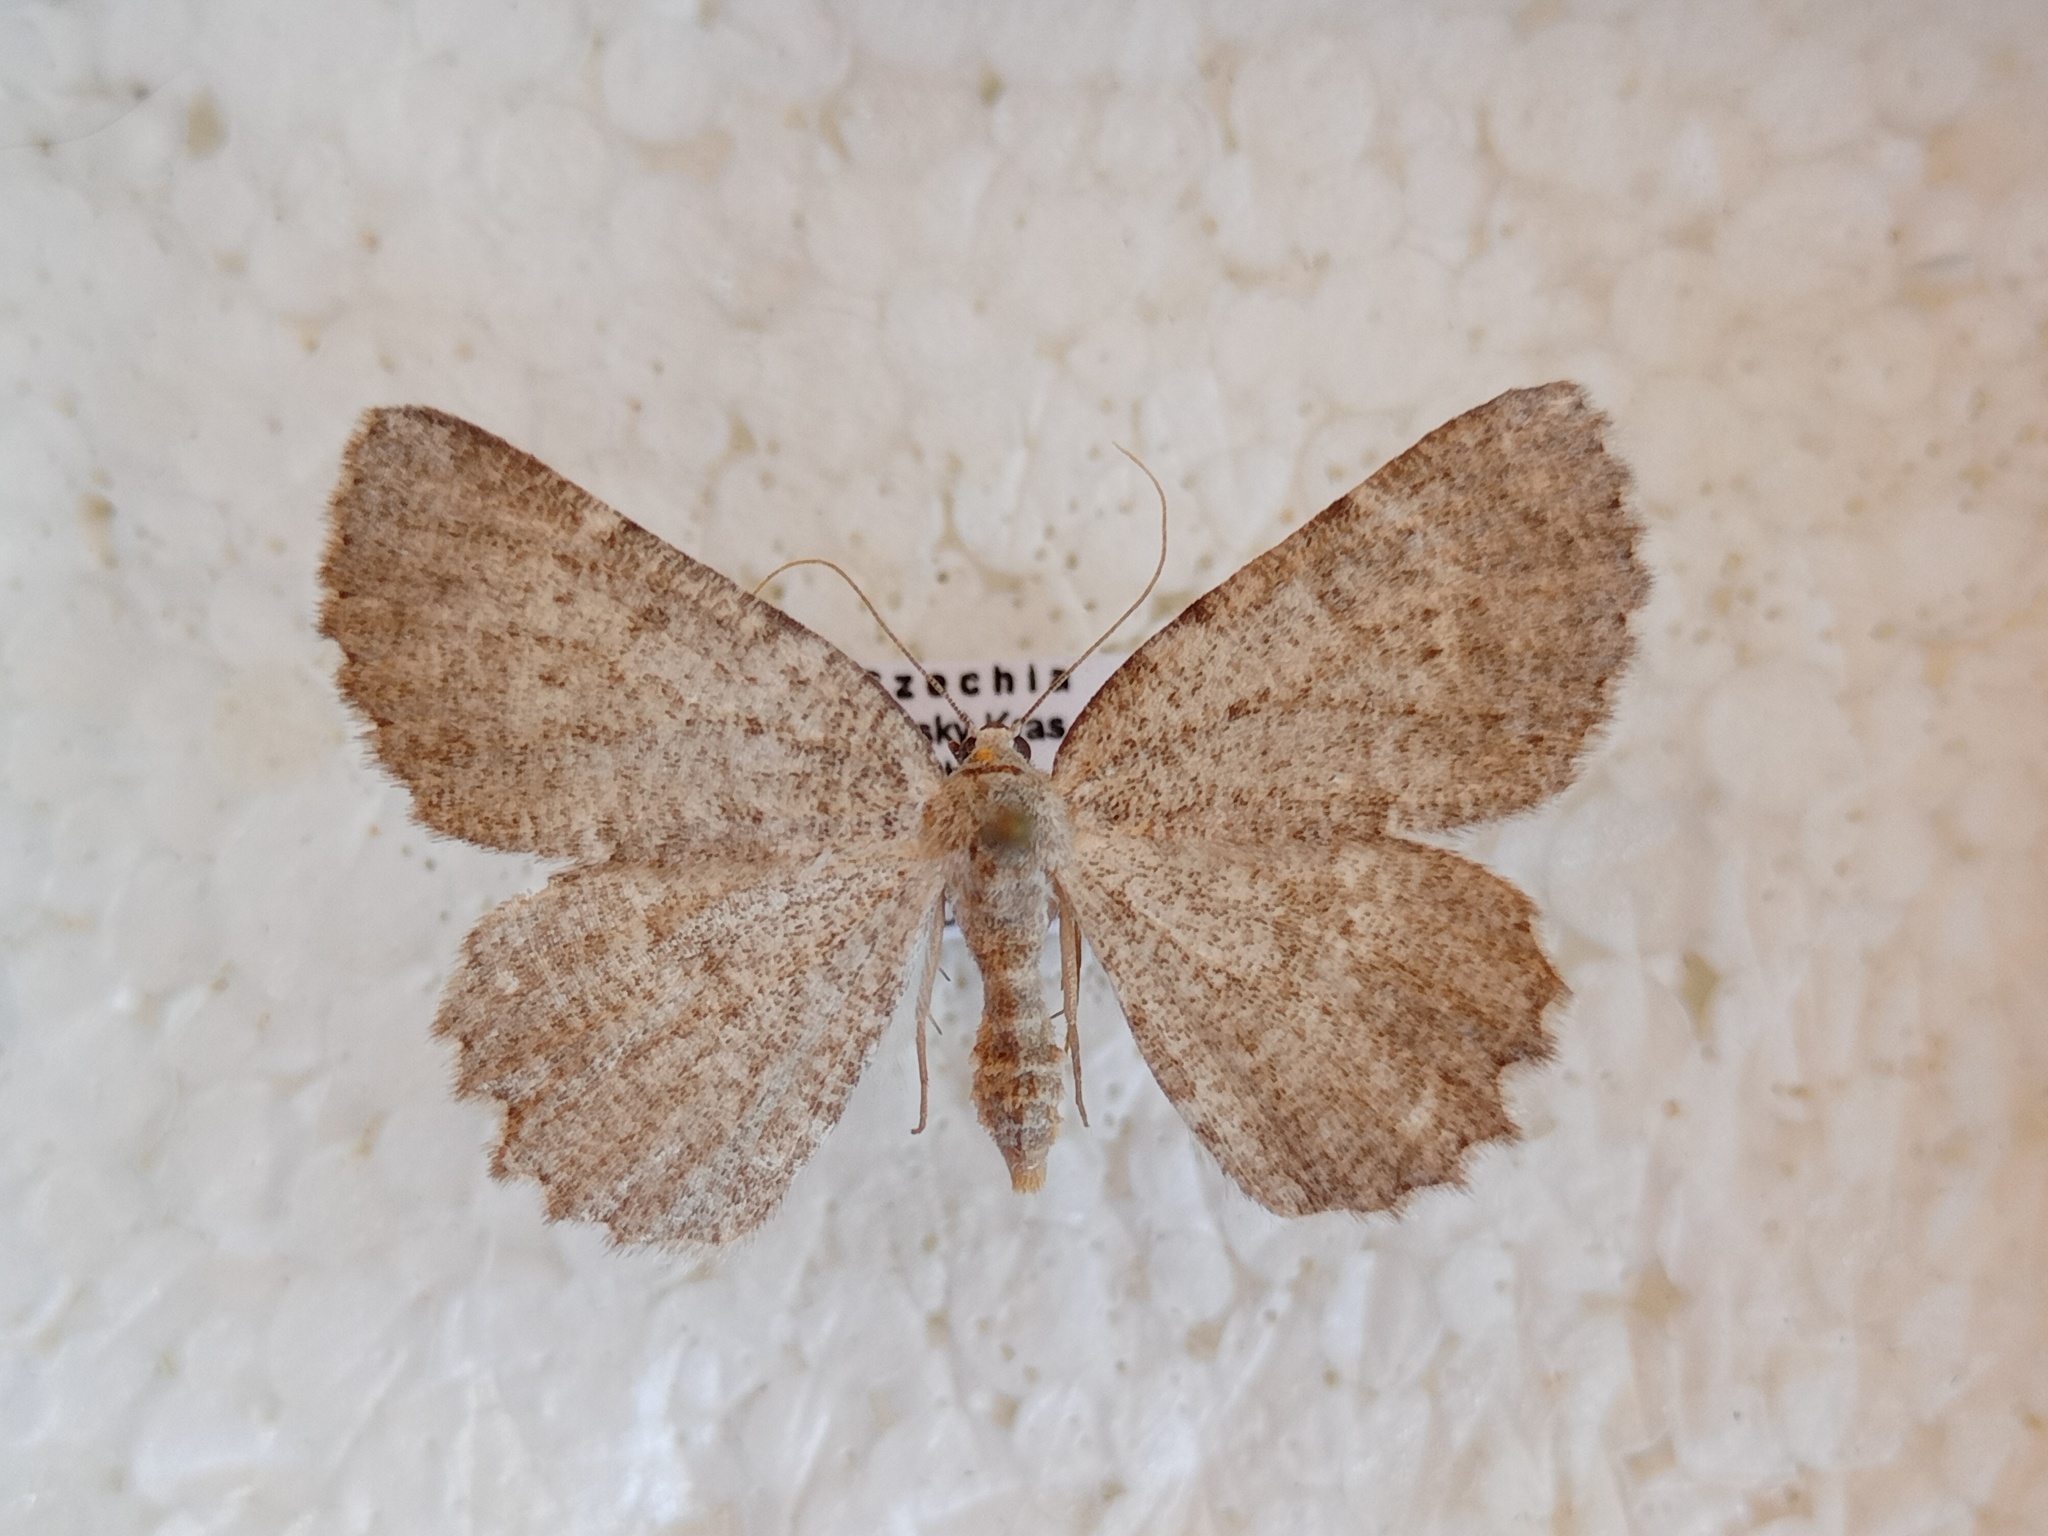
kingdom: Animalia
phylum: Arthropoda
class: Insecta
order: Lepidoptera
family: Geometridae
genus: Charissa
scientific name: Charissa pullata
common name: Limestone annulet
